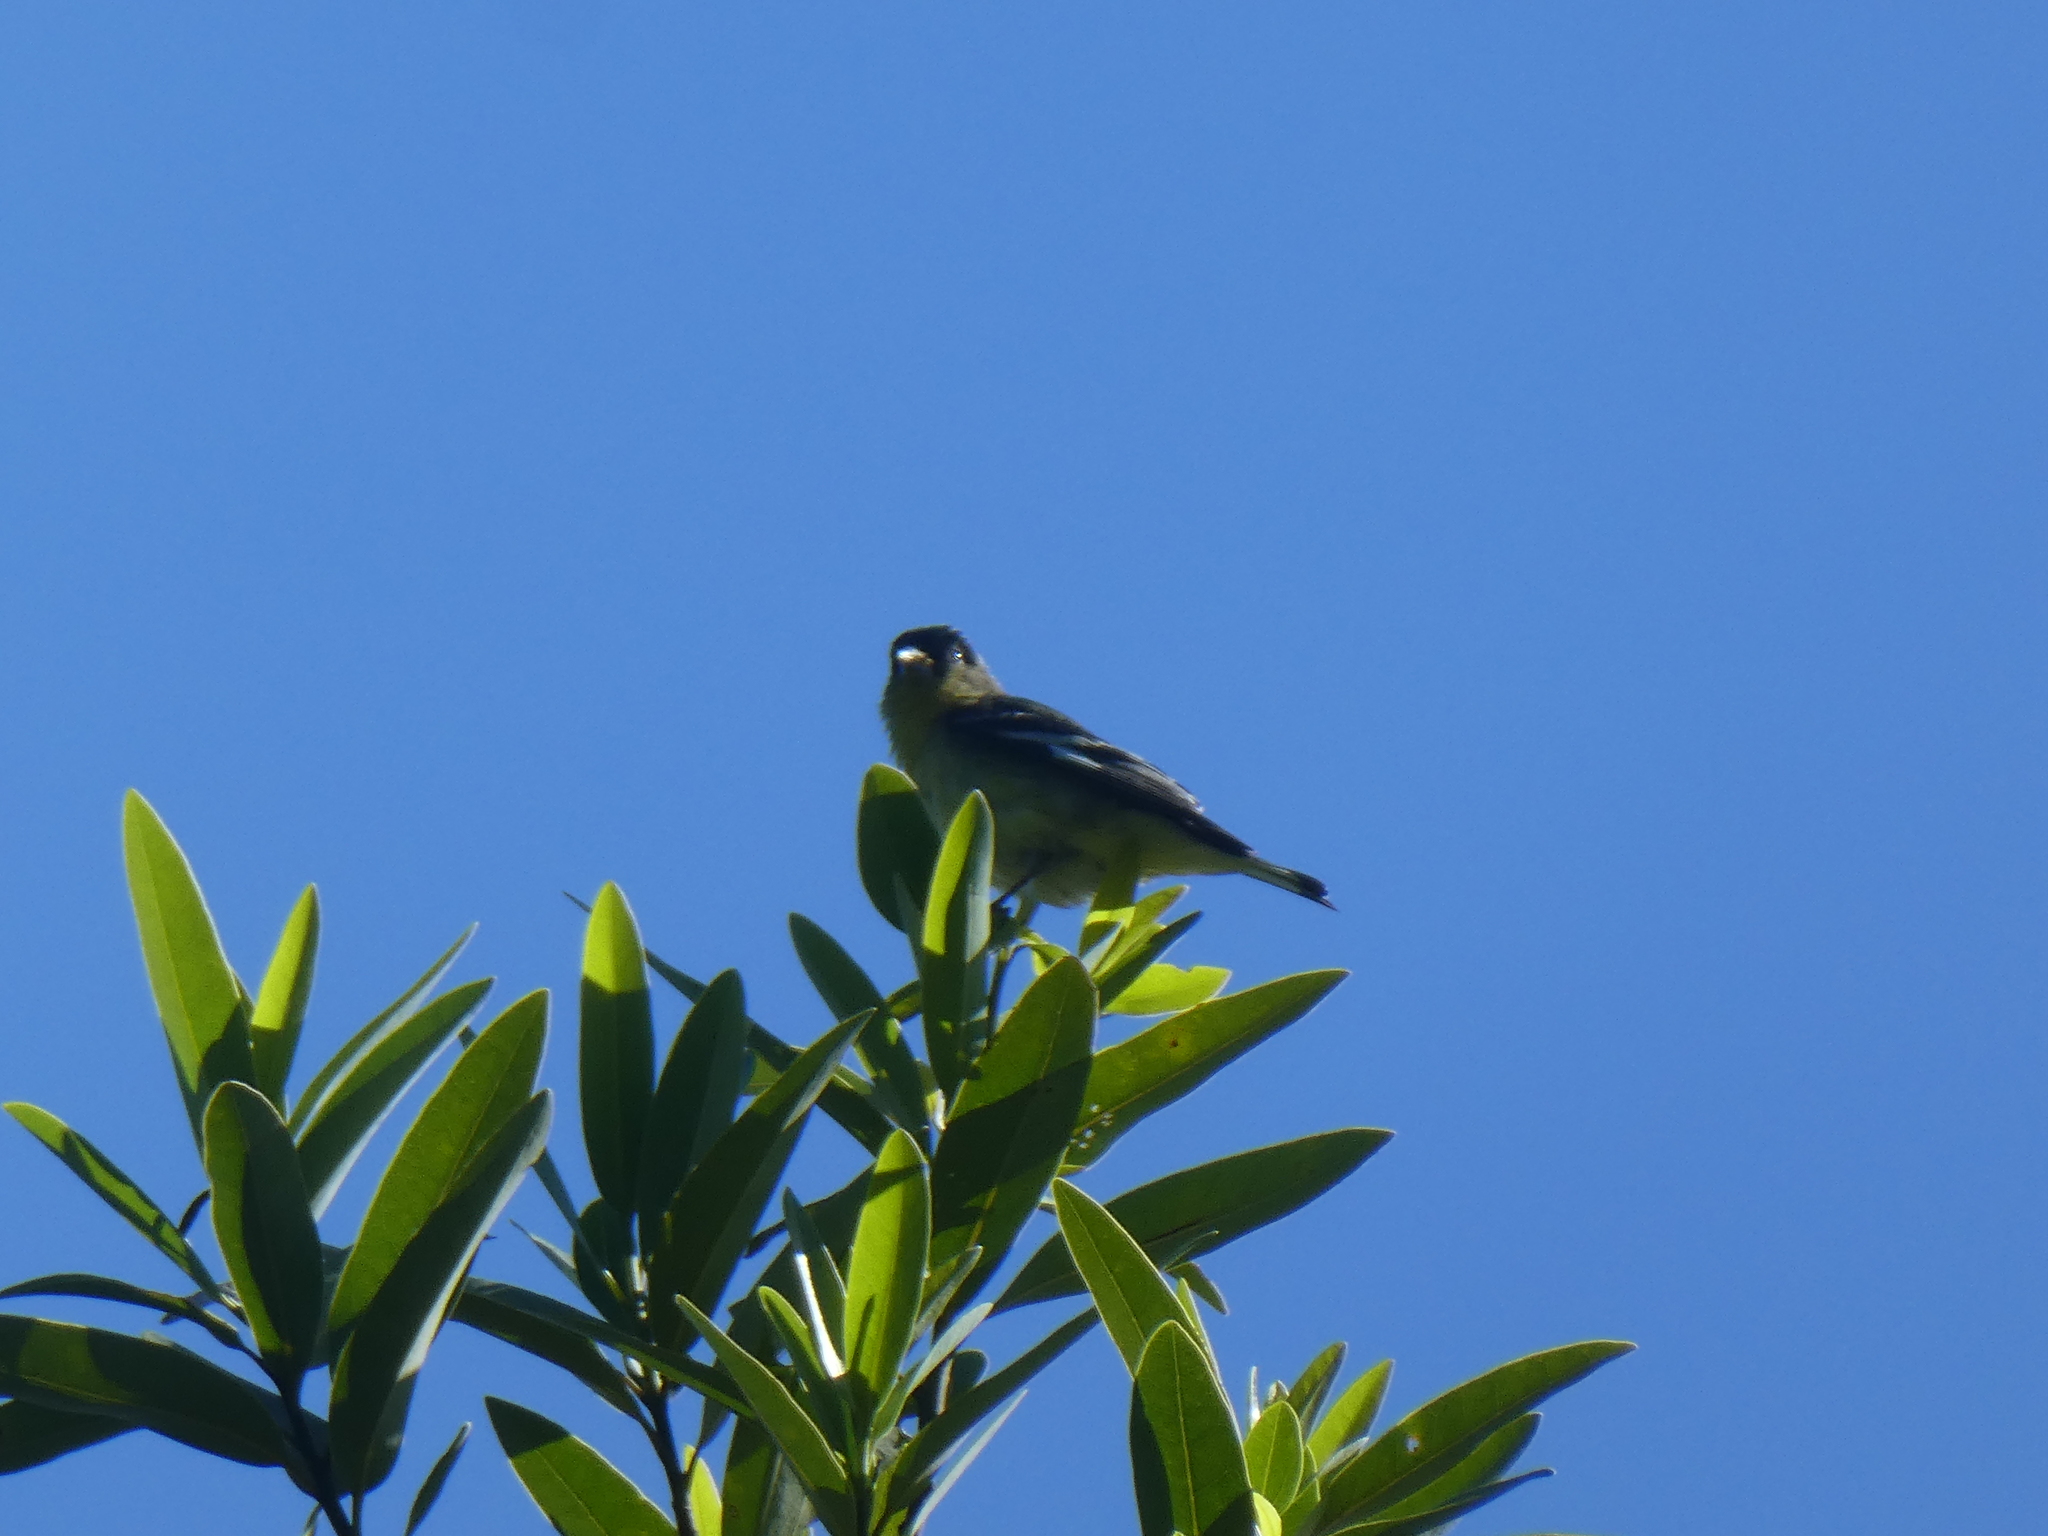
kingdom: Animalia
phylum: Chordata
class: Aves
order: Passeriformes
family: Fringillidae
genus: Spinus
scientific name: Spinus psaltria
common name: Lesser goldfinch
